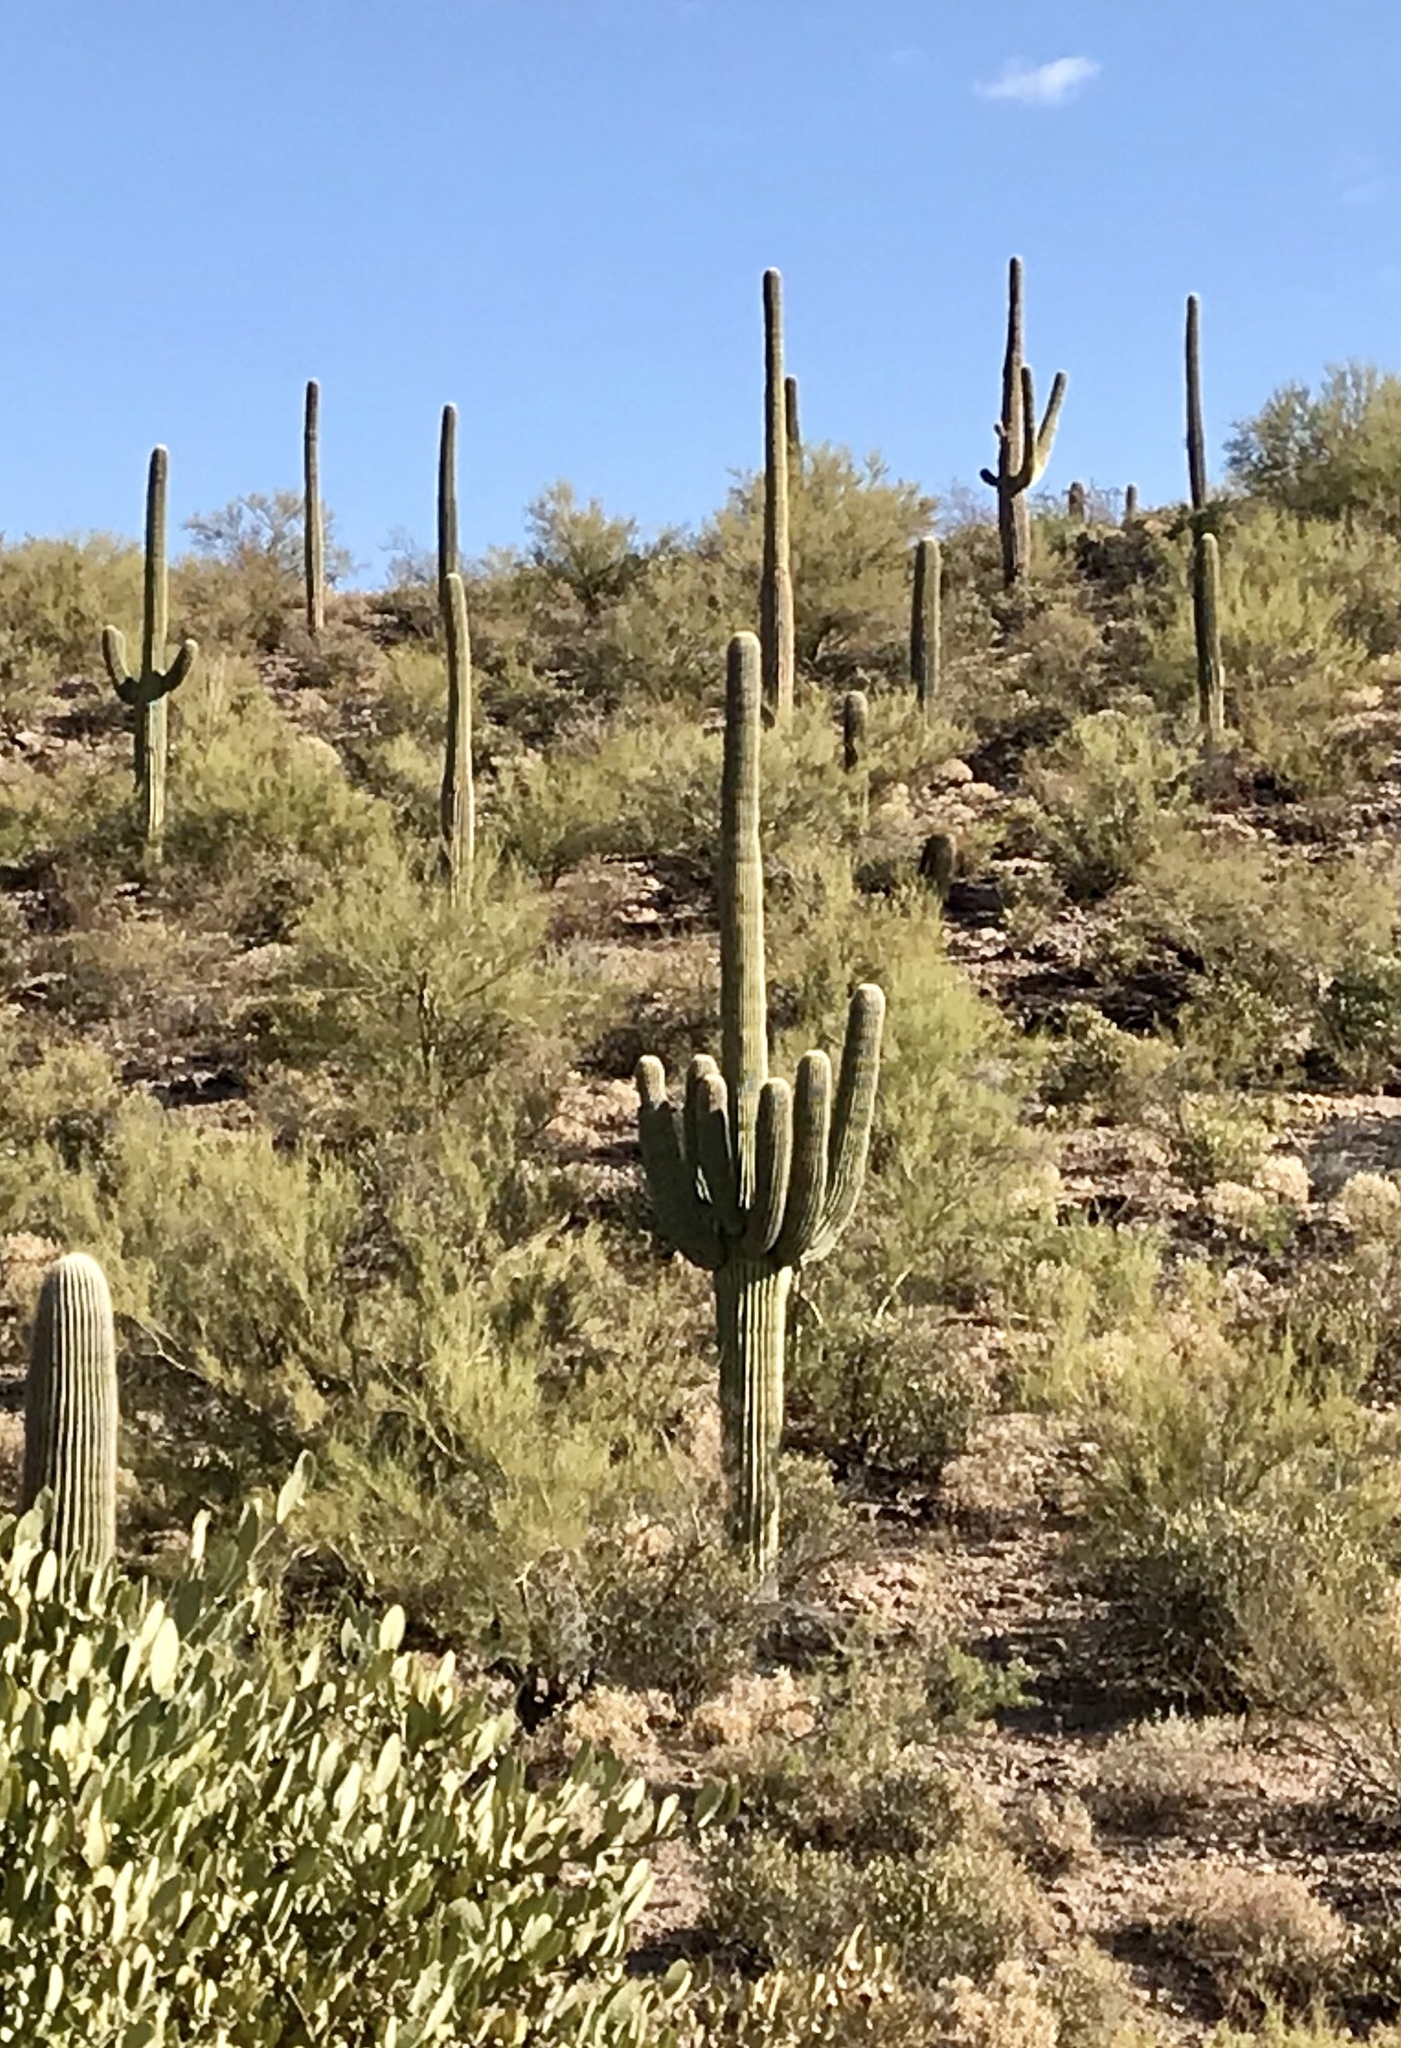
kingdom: Plantae
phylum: Tracheophyta
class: Magnoliopsida
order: Caryophyllales
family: Cactaceae
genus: Carnegiea
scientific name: Carnegiea gigantea
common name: Saguaro
